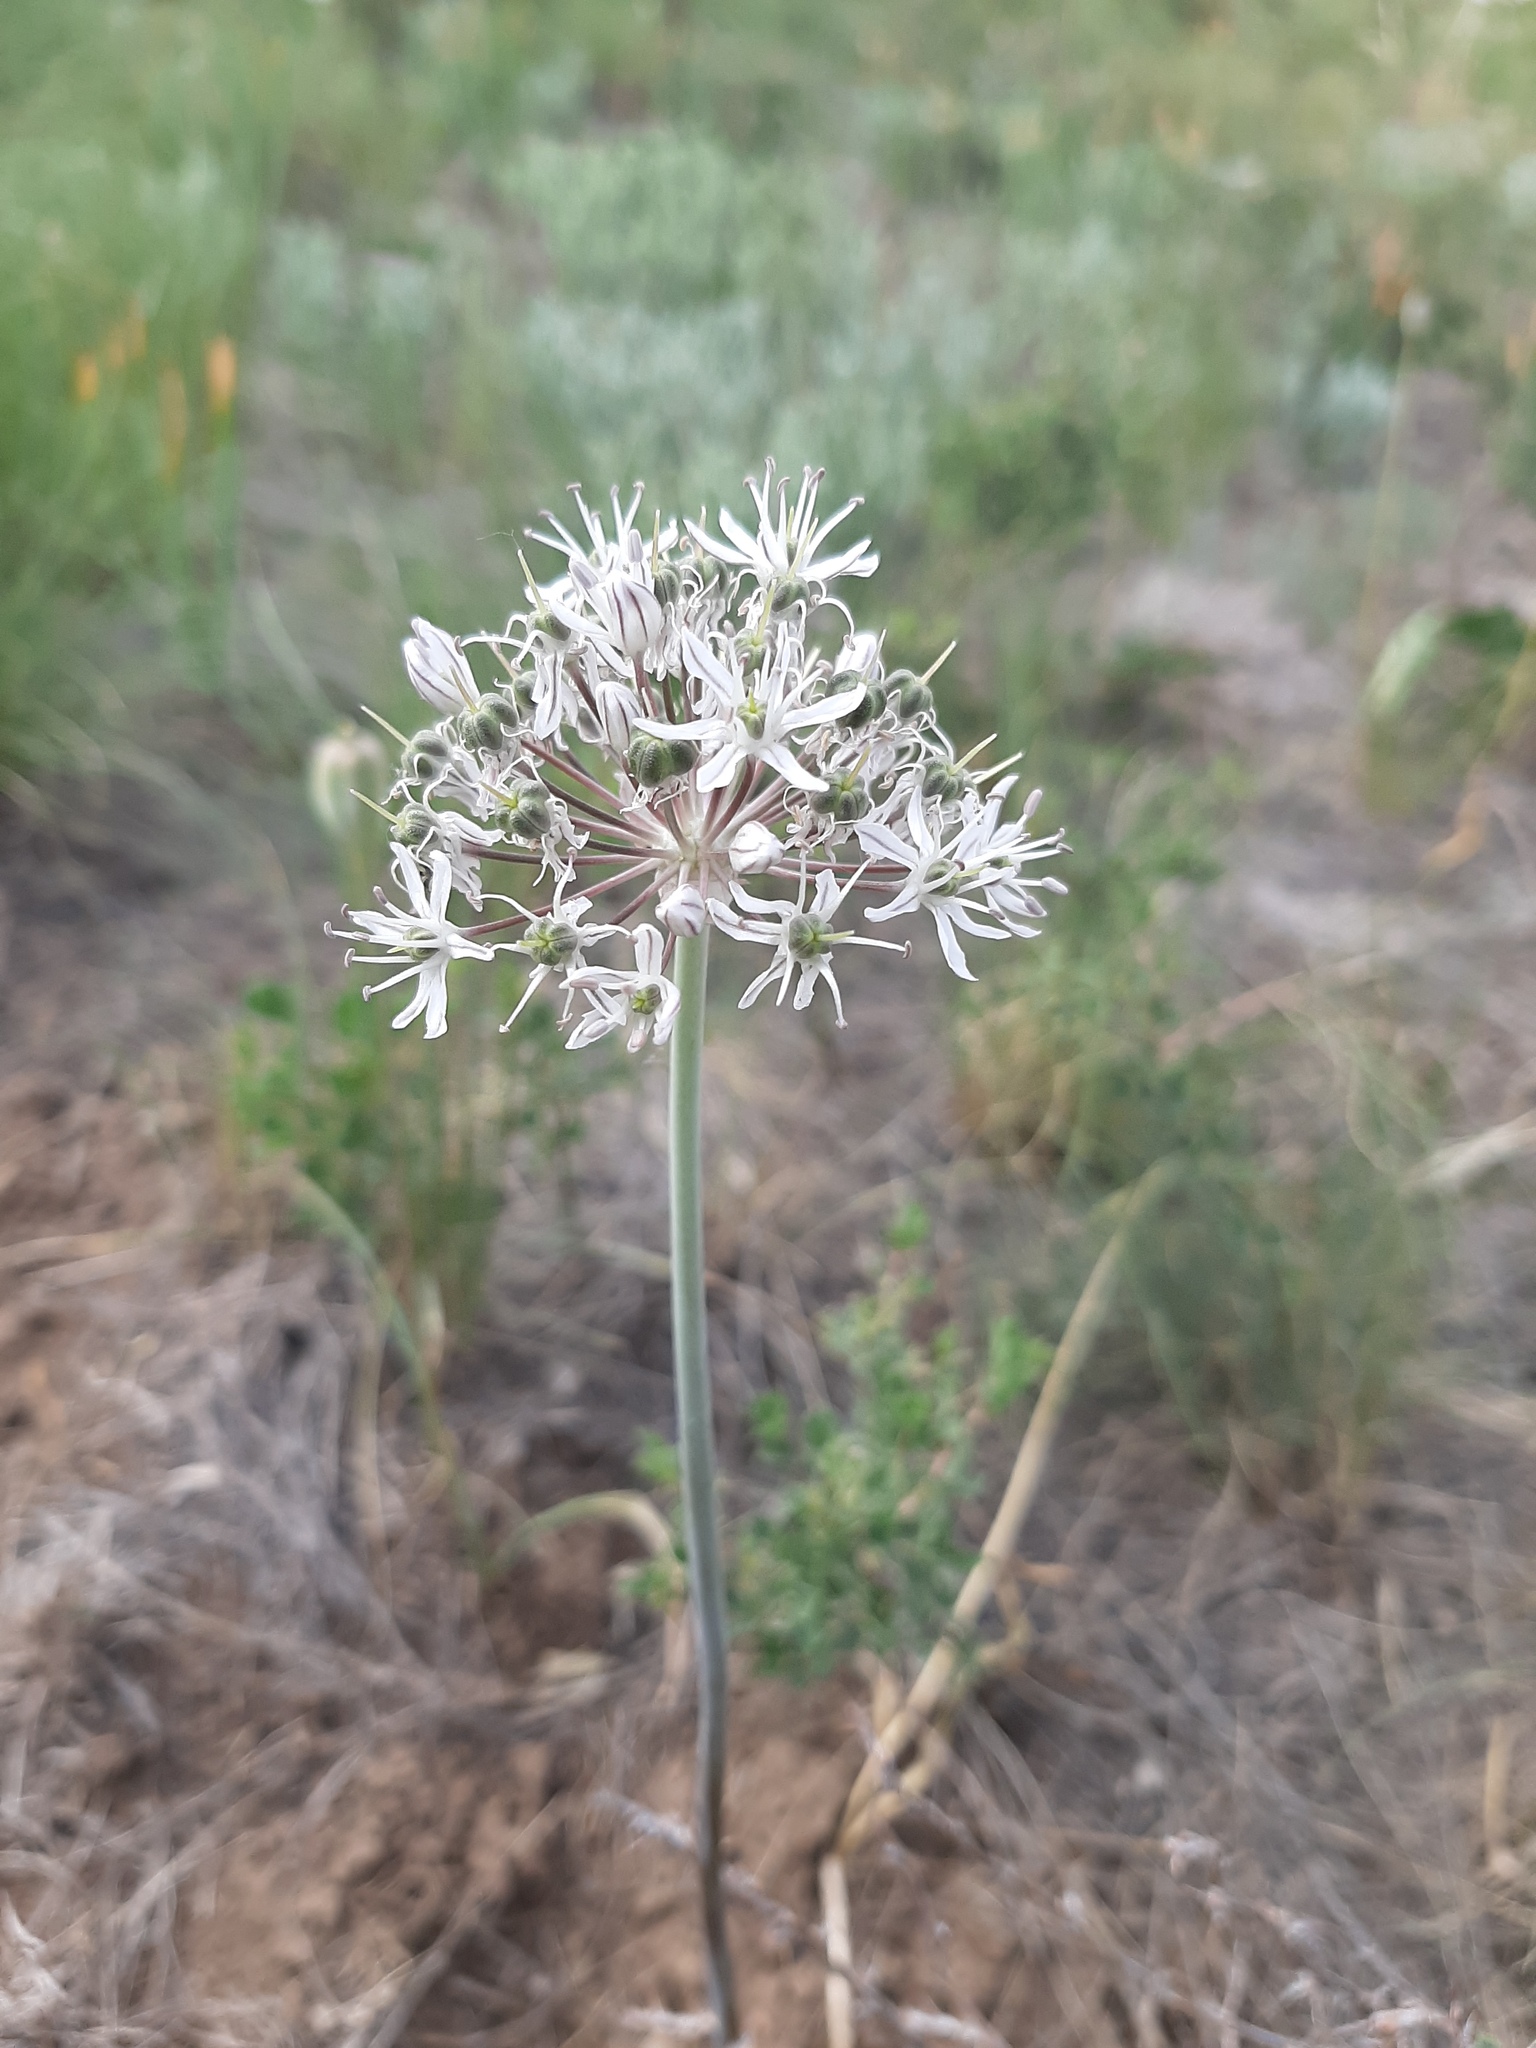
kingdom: Plantae
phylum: Tracheophyta
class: Liliopsida
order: Asparagales
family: Amaryllidaceae
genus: Allium
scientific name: Allium tulipifolium
